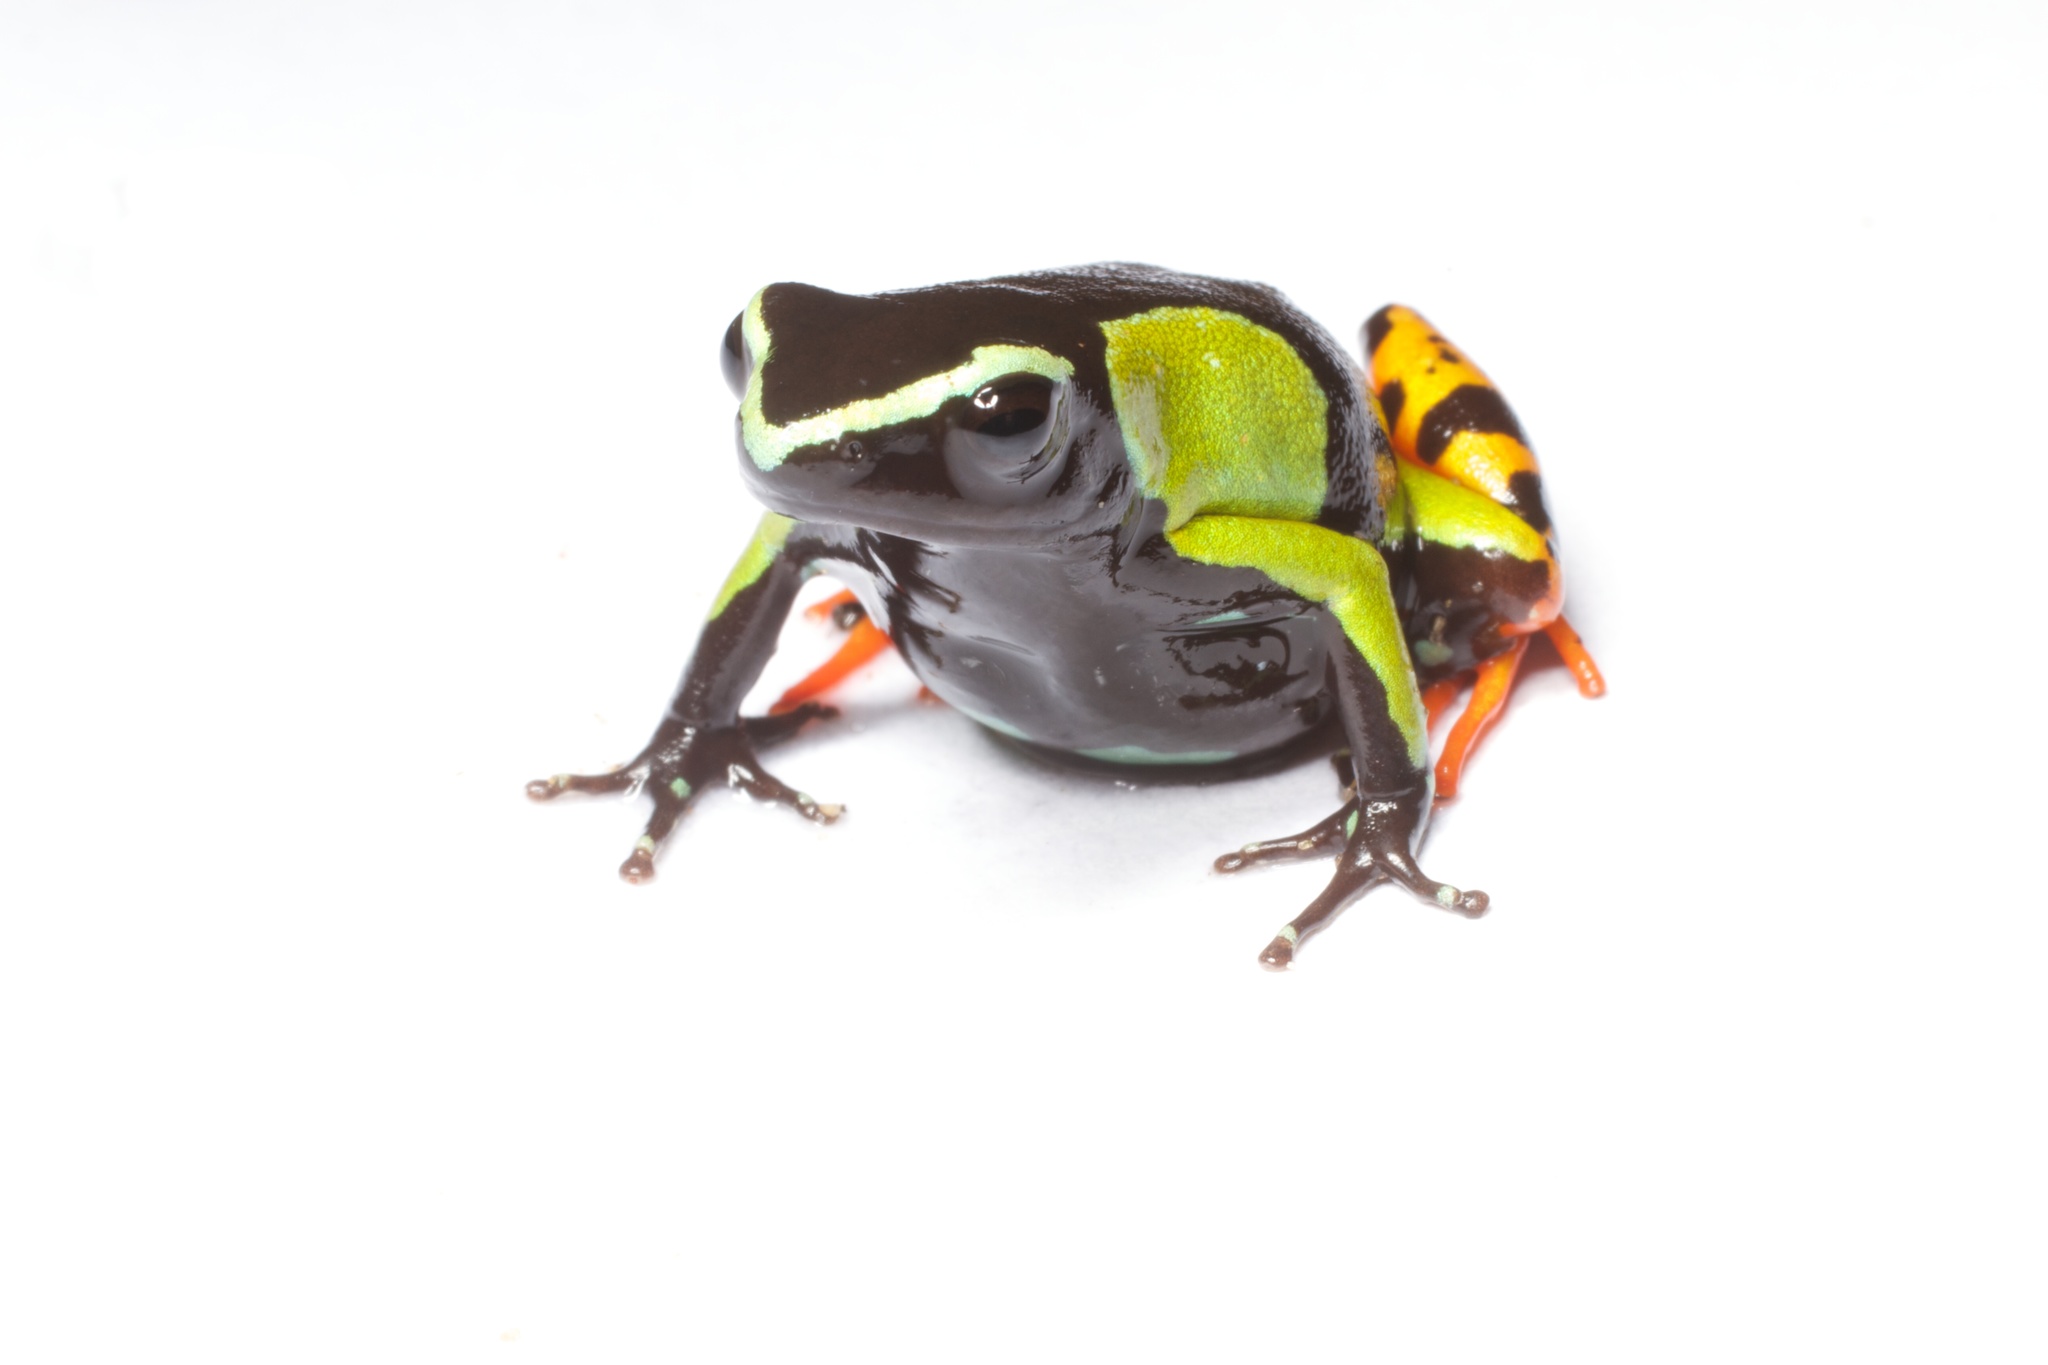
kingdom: Animalia
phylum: Chordata
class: Amphibia
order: Anura
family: Mantellidae
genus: Mantella
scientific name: Mantella baroni
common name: Baron's mantella
